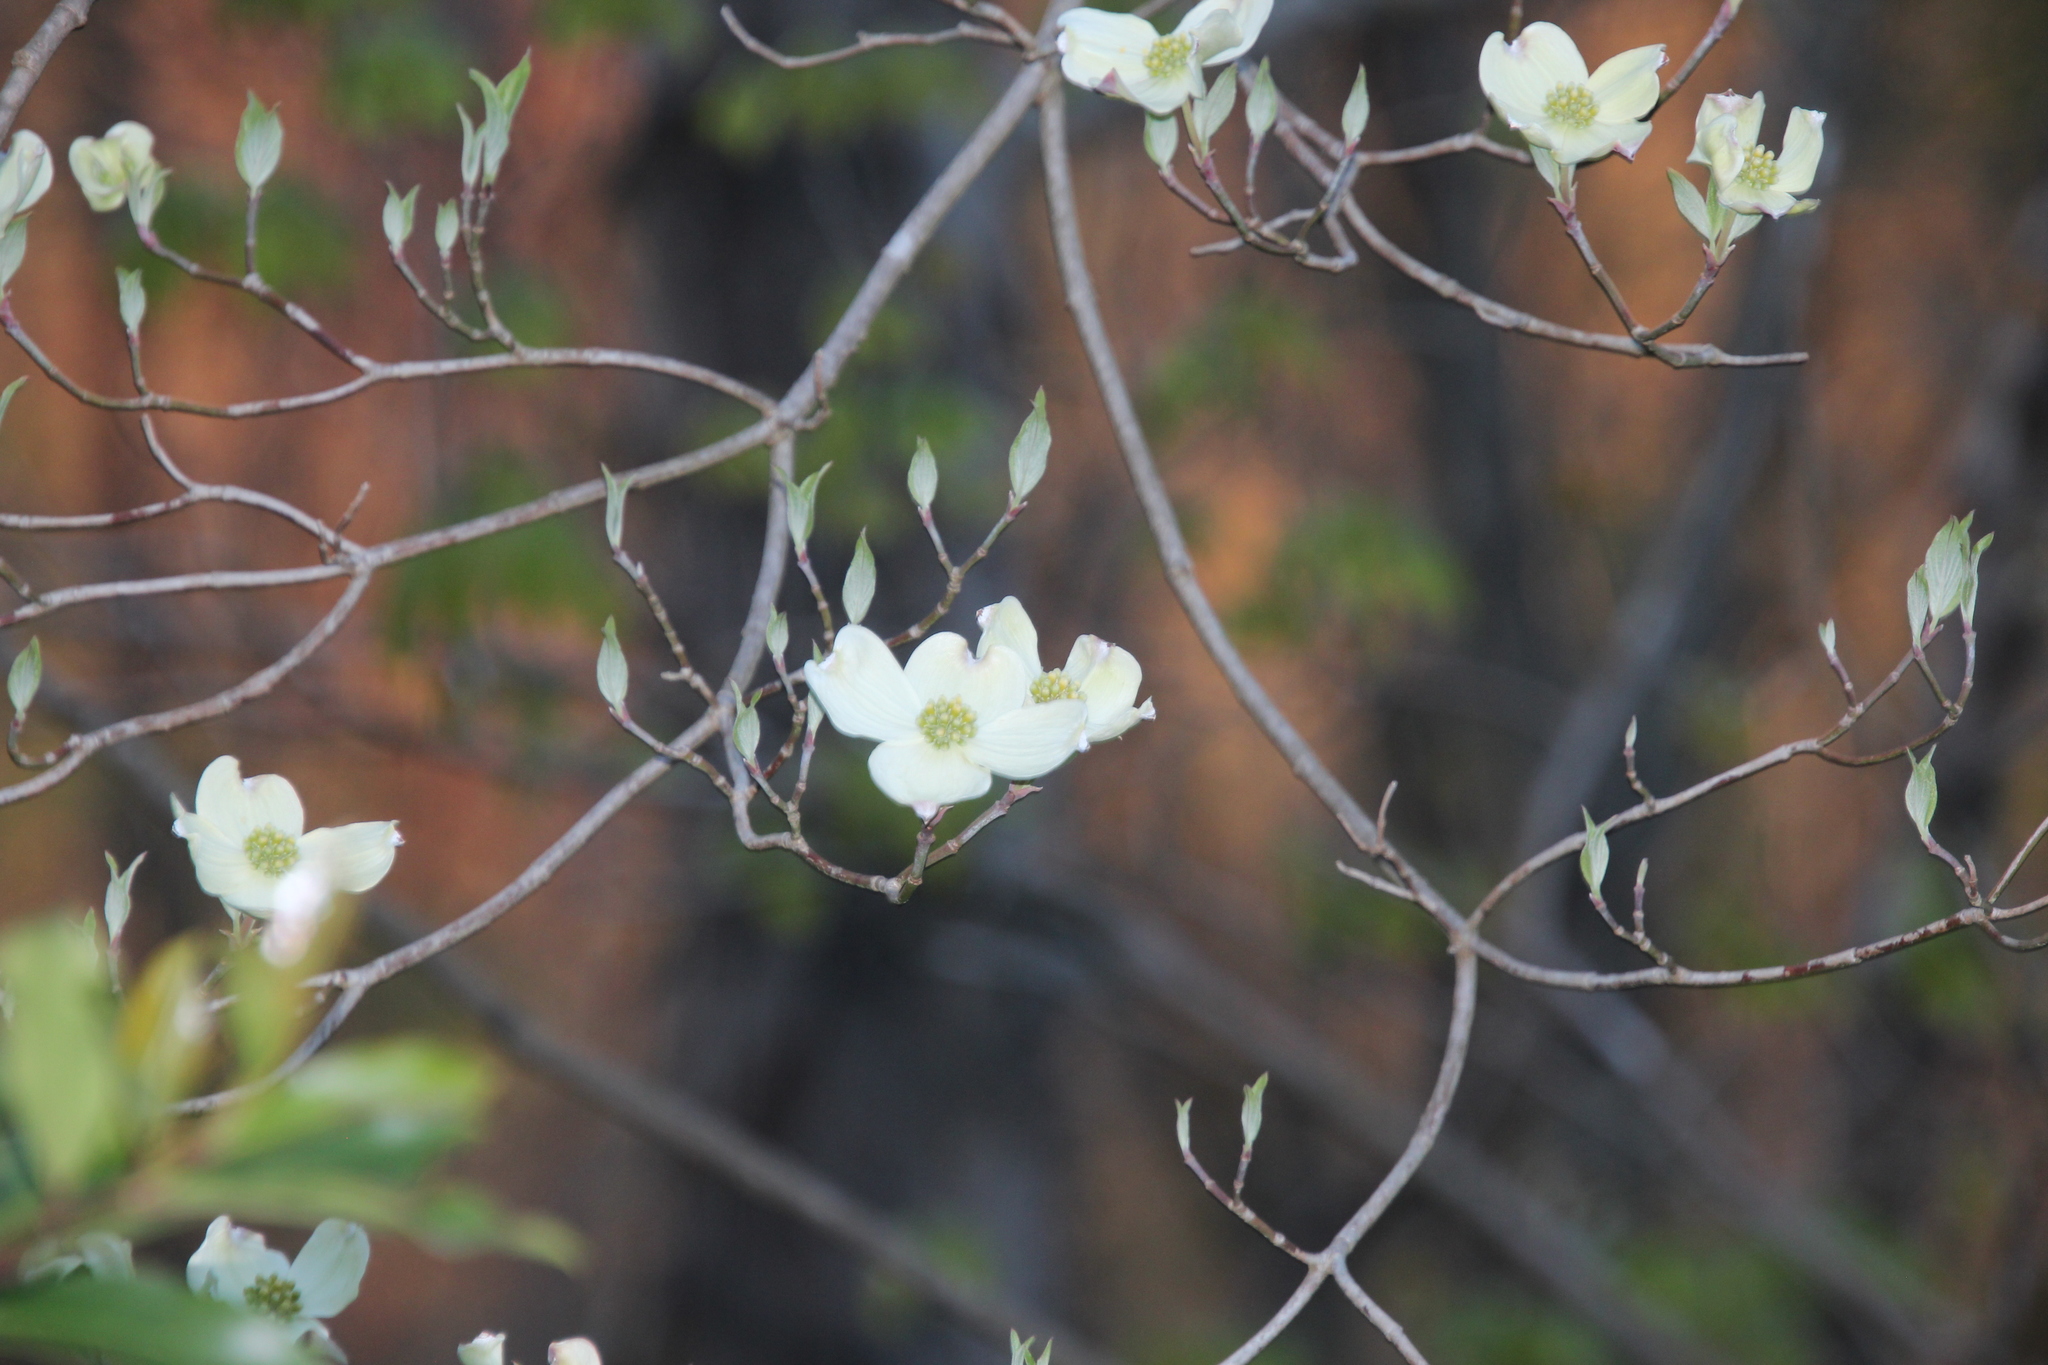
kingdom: Plantae
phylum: Tracheophyta
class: Magnoliopsida
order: Cornales
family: Cornaceae
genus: Cornus
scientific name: Cornus florida
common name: Flowering dogwood
